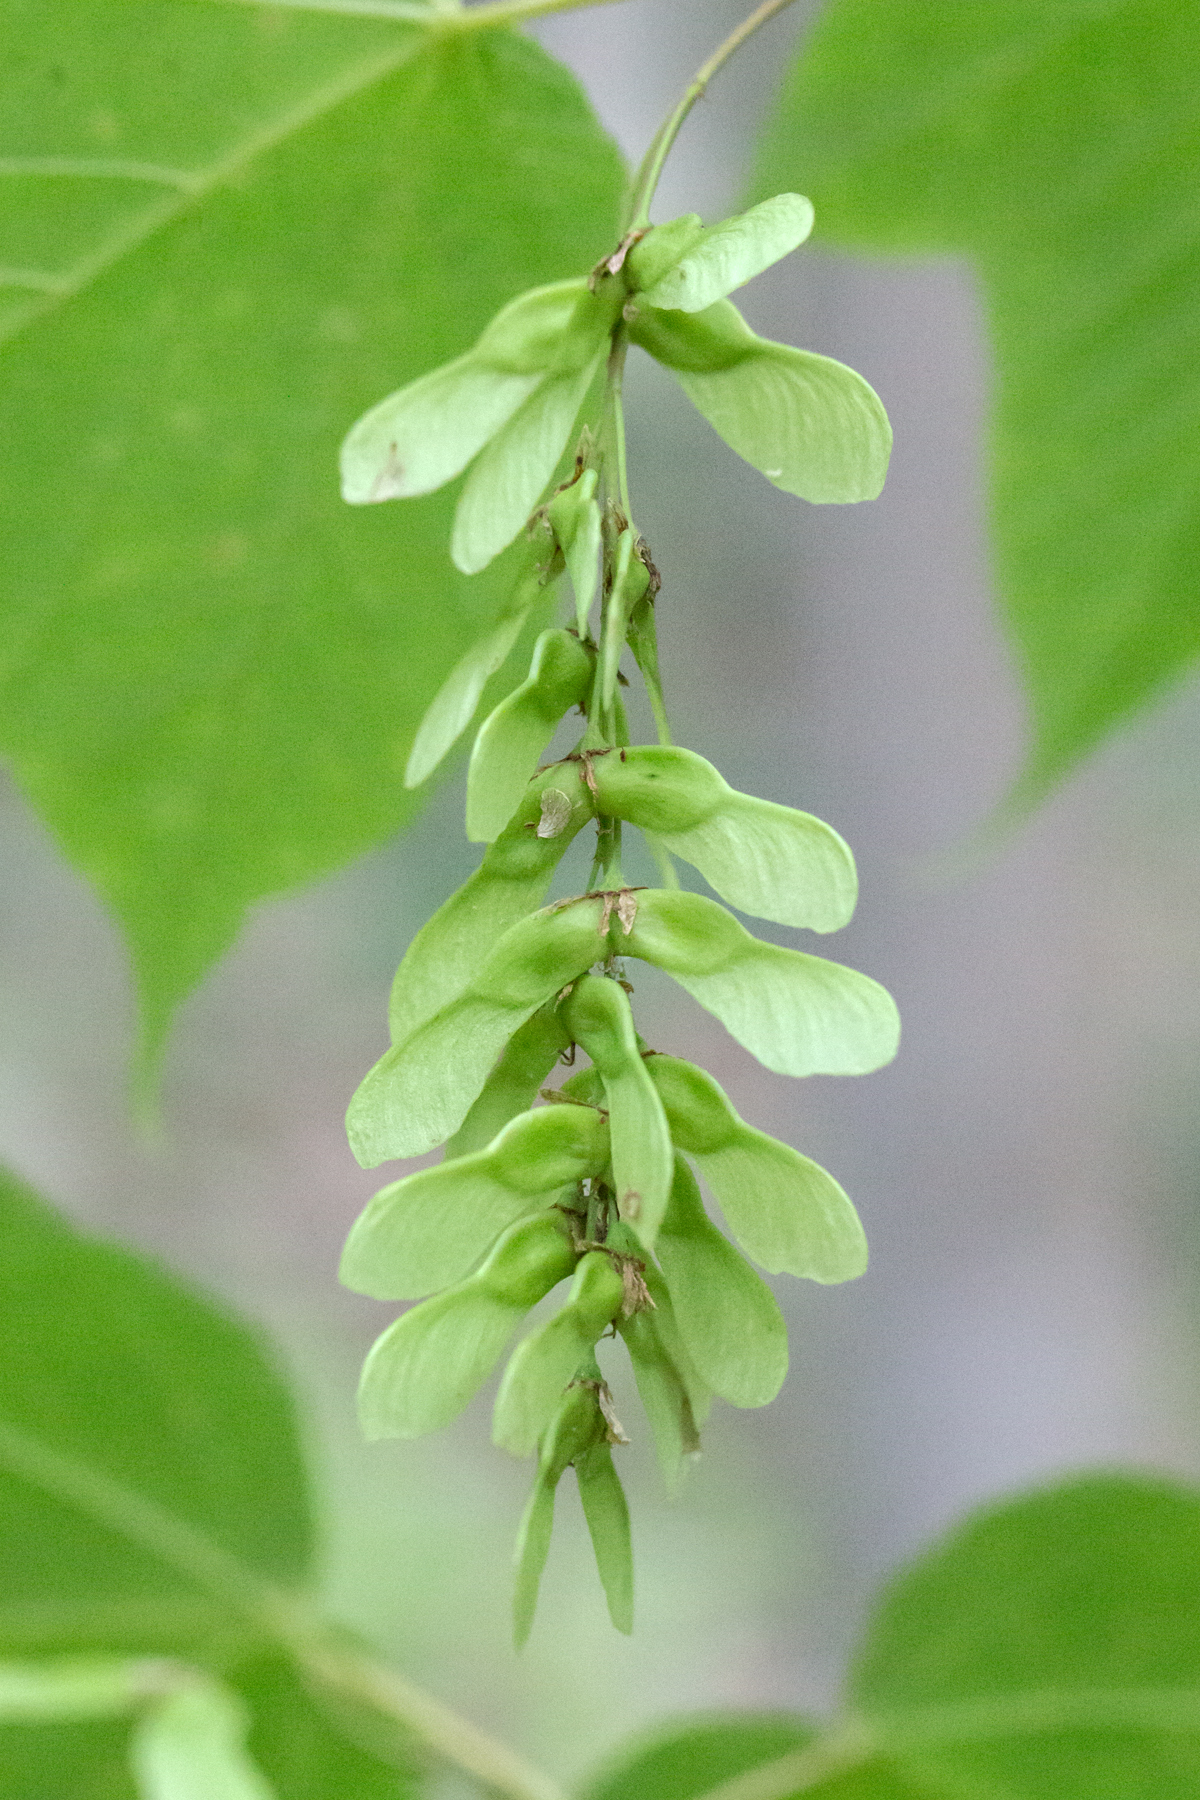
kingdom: Plantae
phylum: Tracheophyta
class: Magnoliopsida
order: Sapindales
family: Sapindaceae
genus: Acer
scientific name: Acer pensylvanicum
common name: Moosewood
